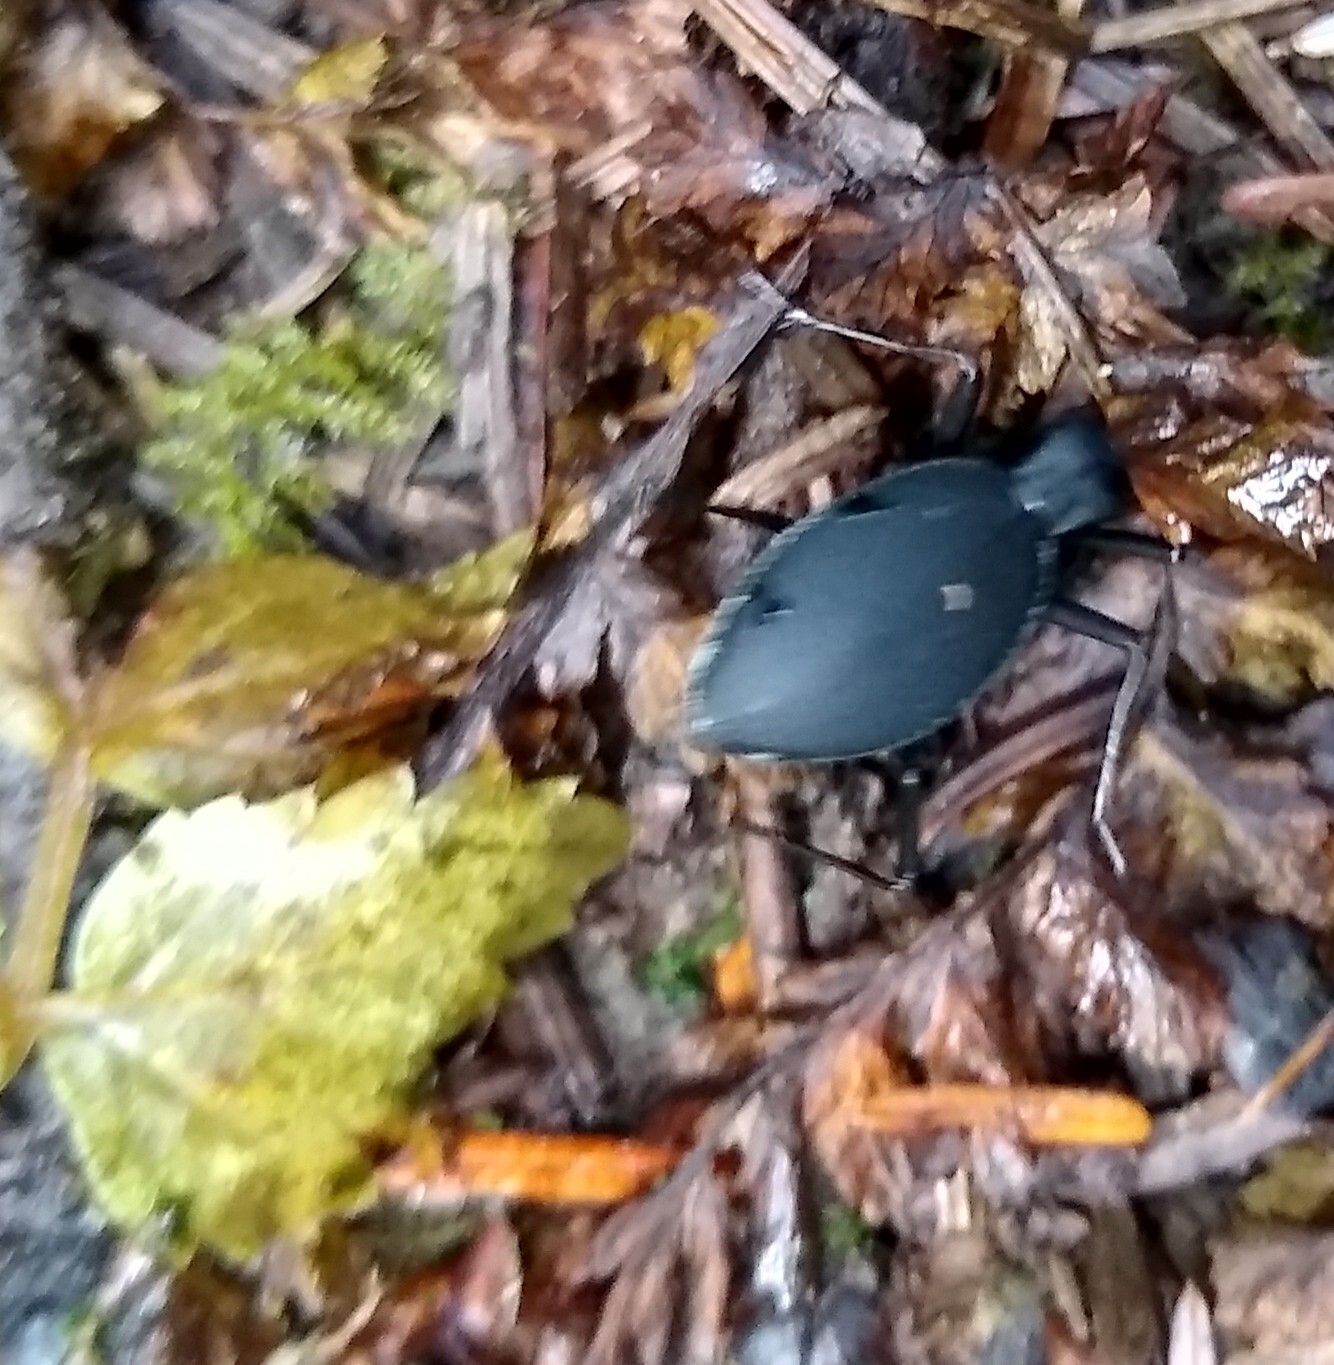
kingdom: Animalia
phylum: Arthropoda
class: Insecta
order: Coleoptera
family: Carabidae
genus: Scaphinotus
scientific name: Scaphinotus angusticollis
